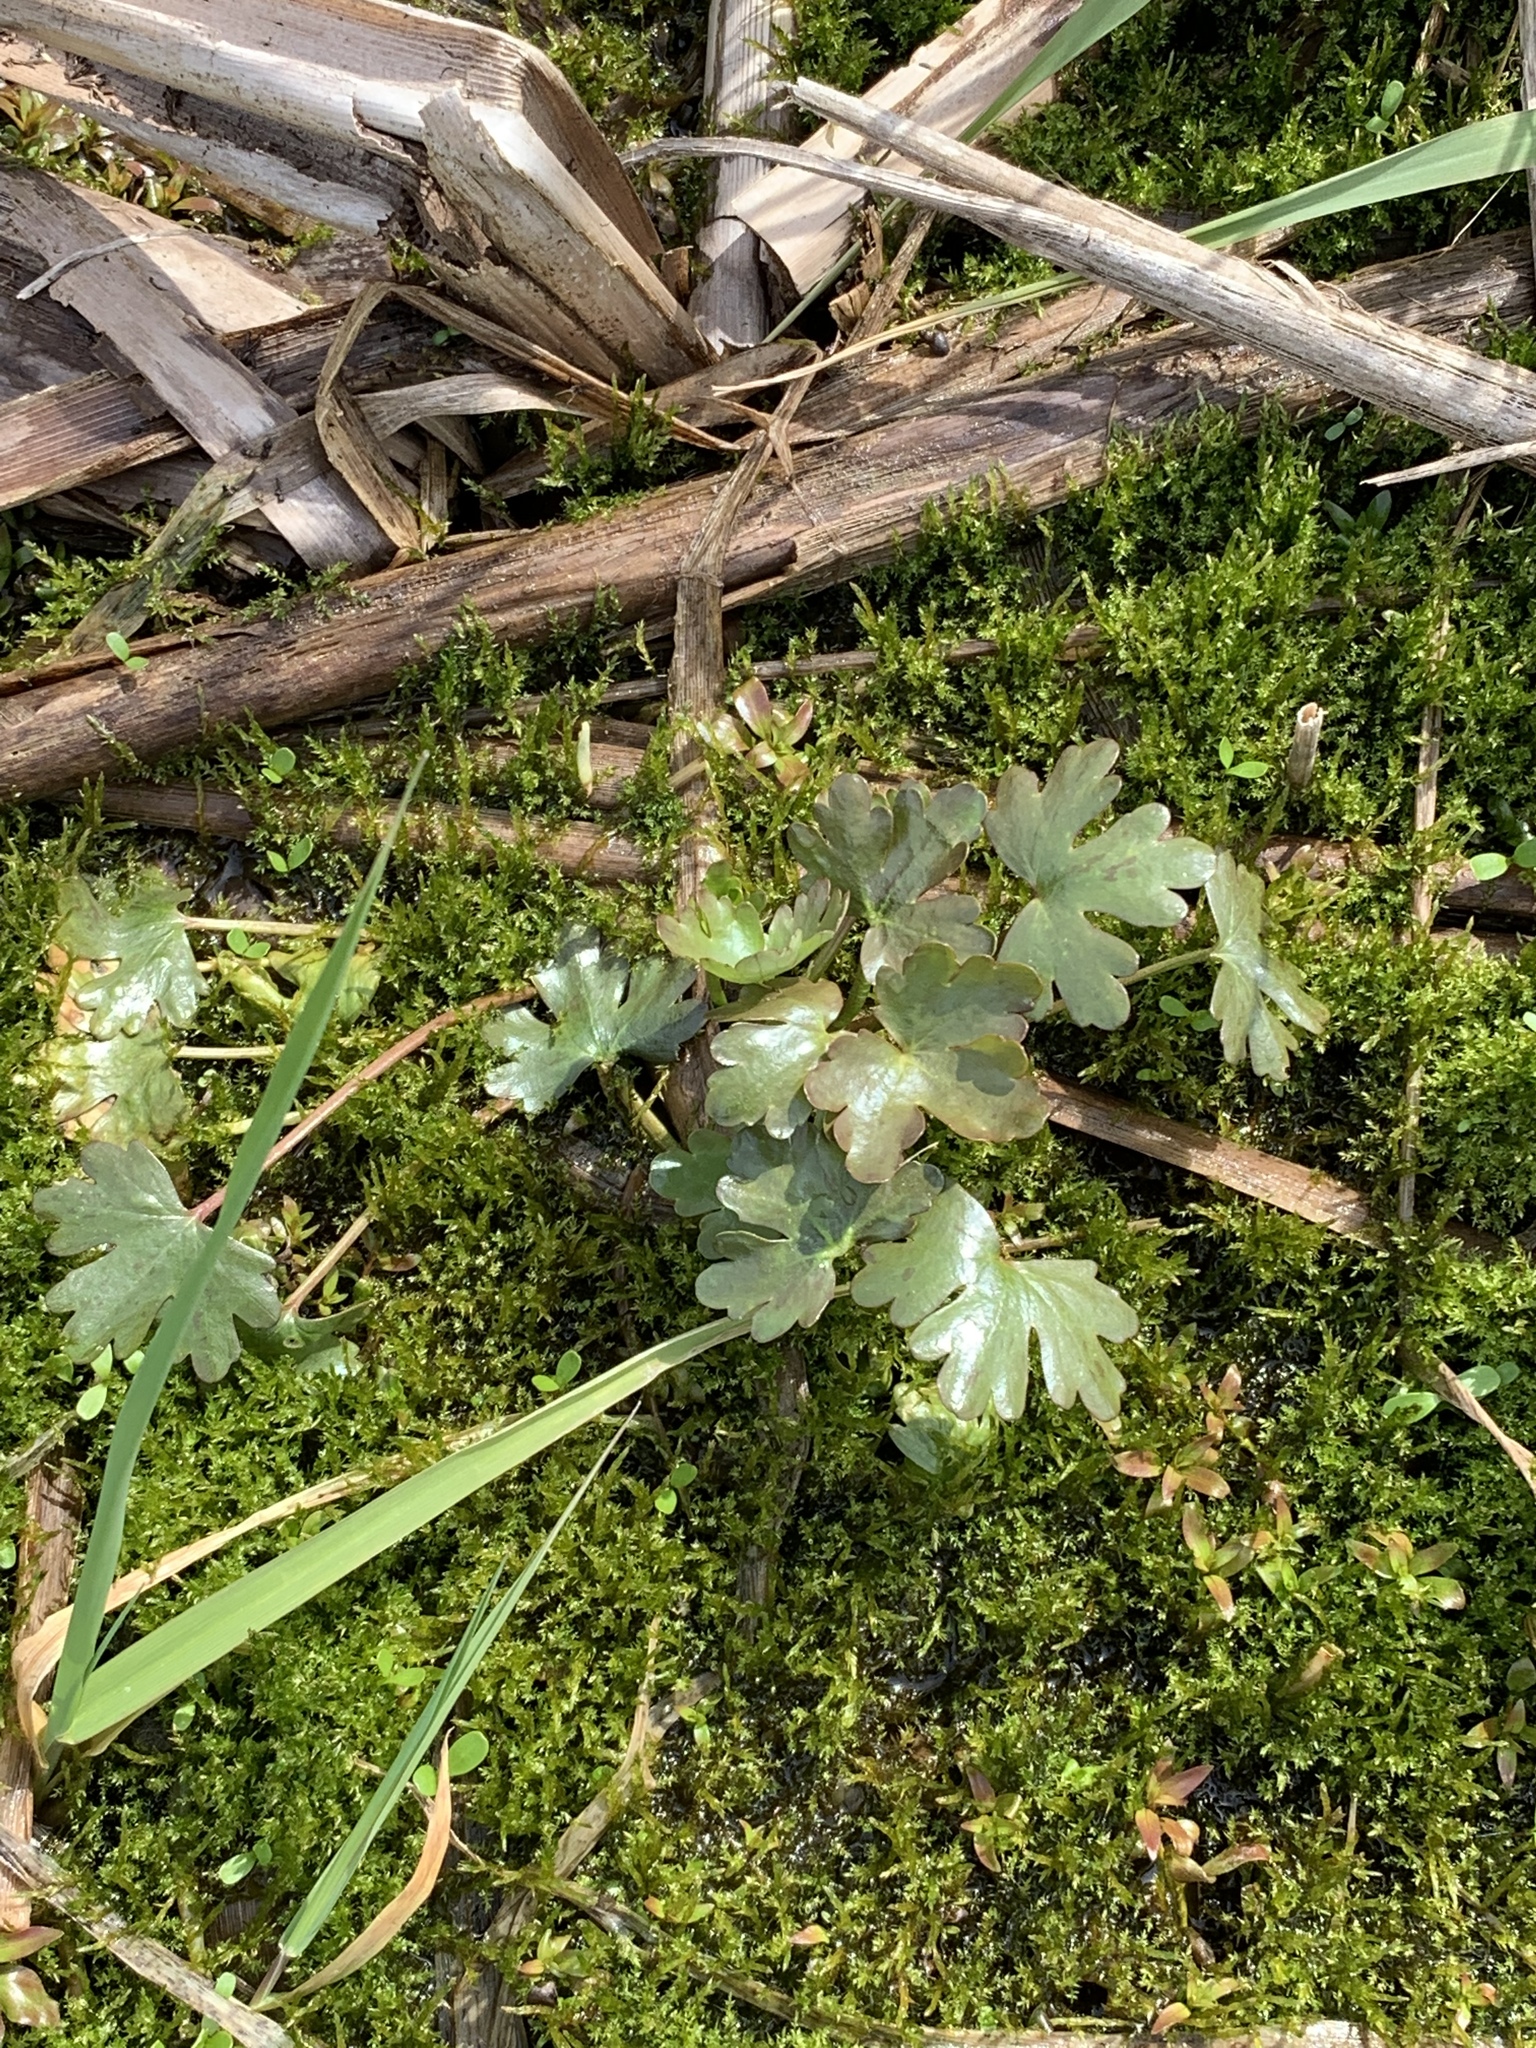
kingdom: Plantae
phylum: Tracheophyta
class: Magnoliopsida
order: Ranunculales
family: Ranunculaceae
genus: Ranunculus
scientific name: Ranunculus sceleratus
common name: Celery-leaved buttercup
